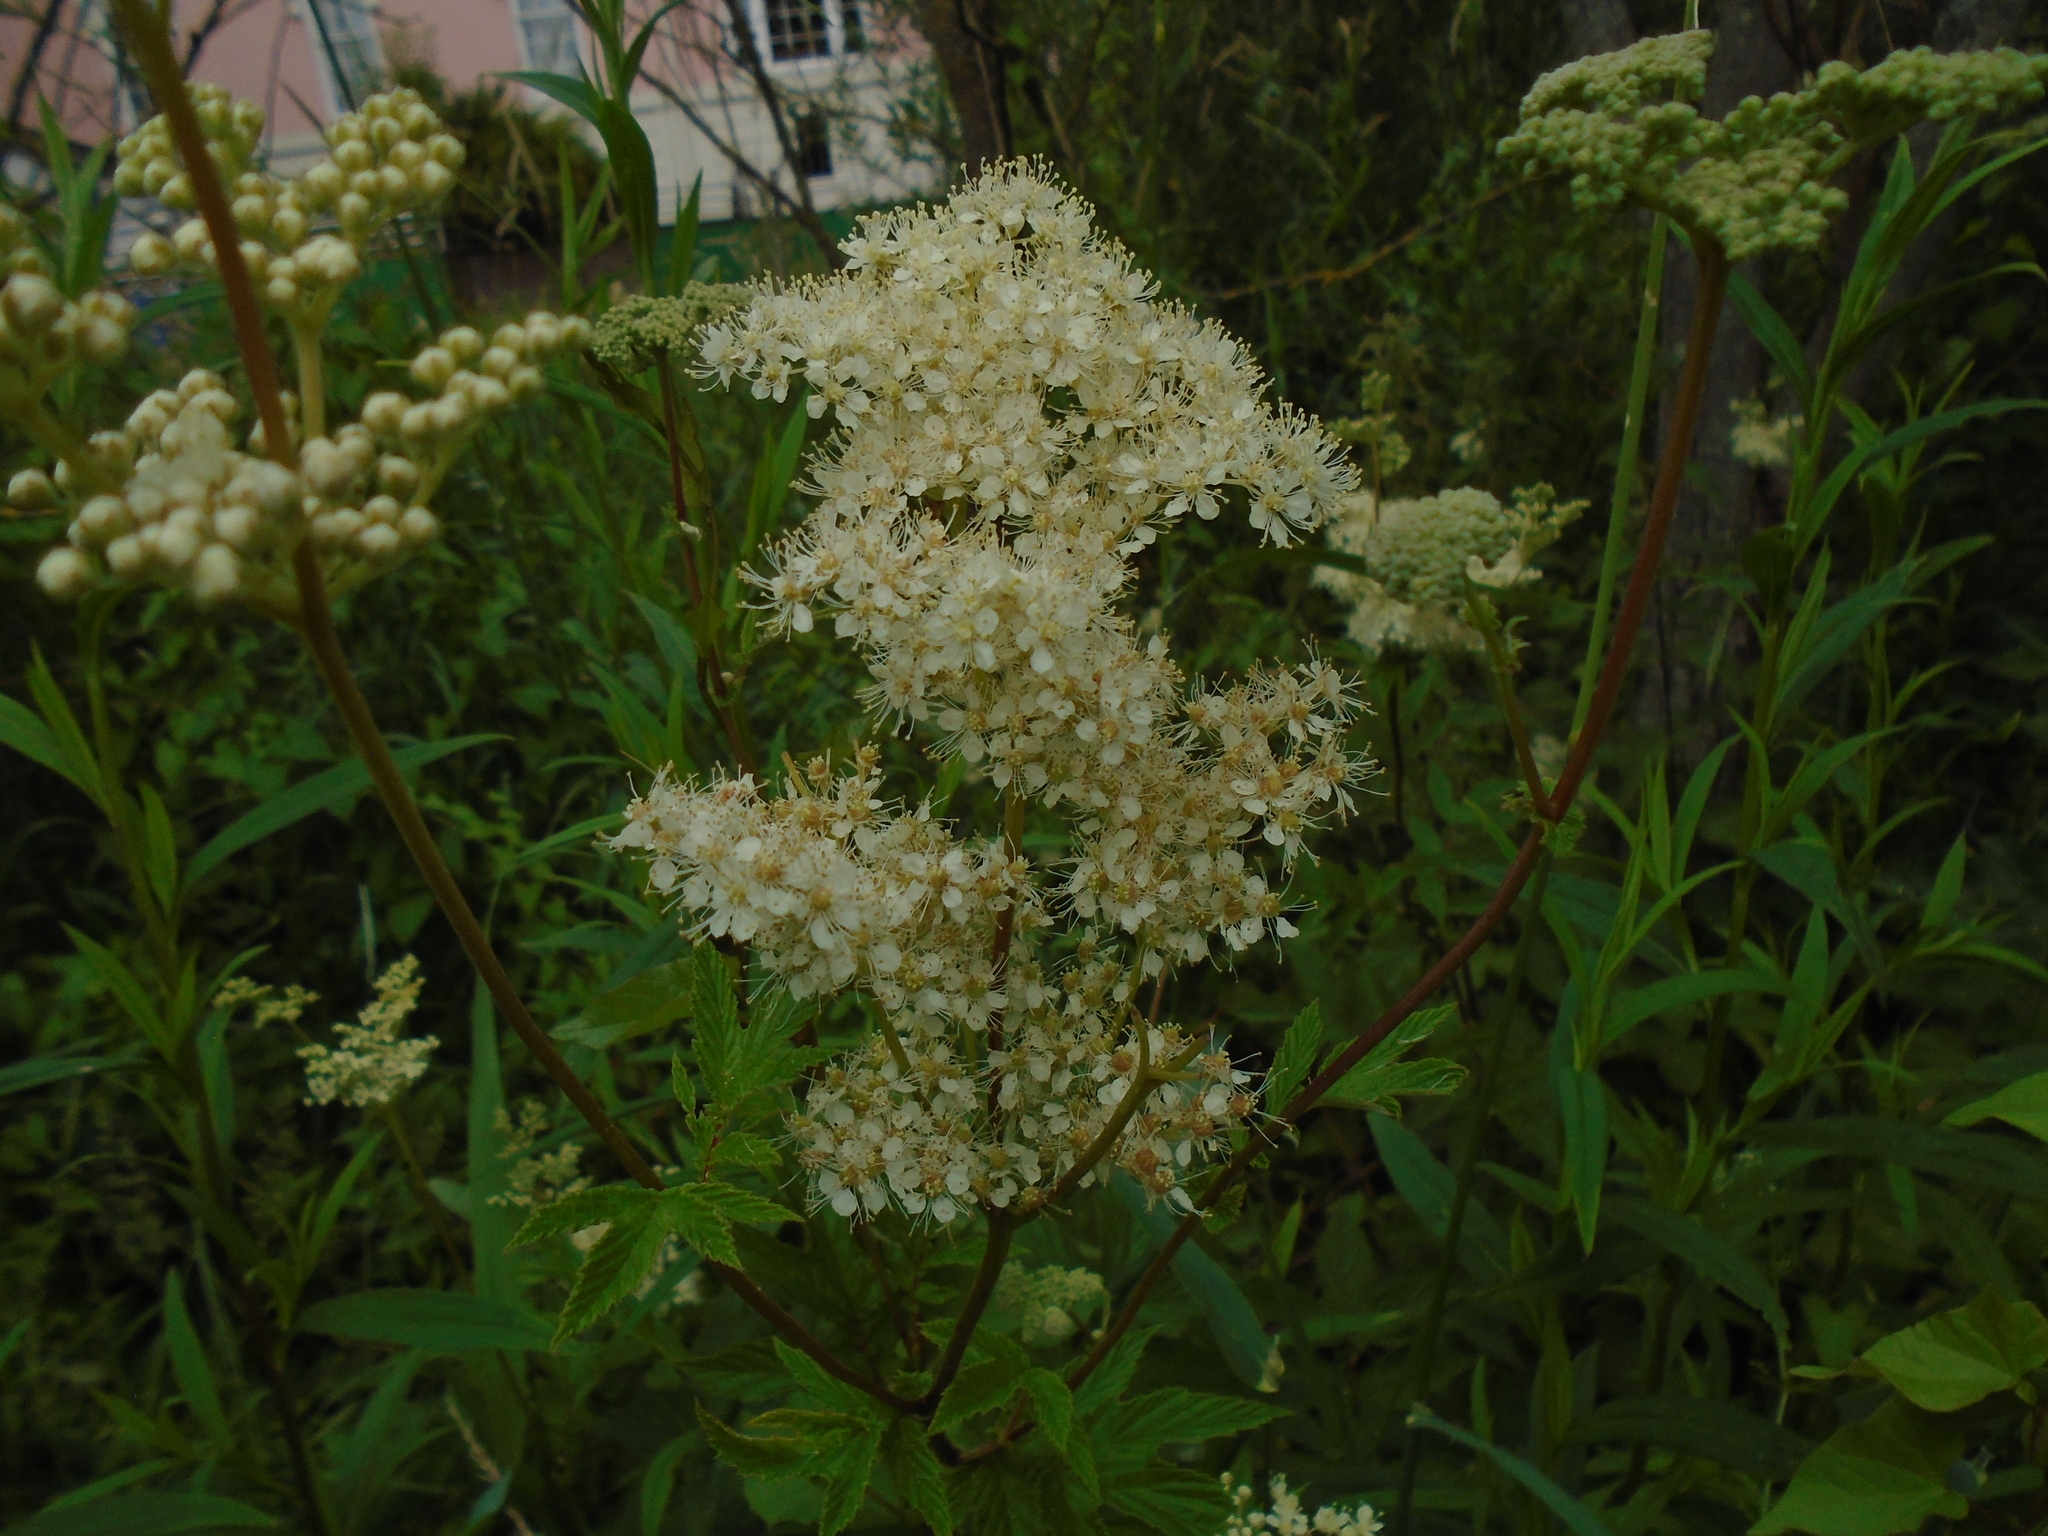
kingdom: Plantae
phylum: Tracheophyta
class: Magnoliopsida
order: Rosales
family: Rosaceae
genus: Filipendula
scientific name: Filipendula ulmaria
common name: Meadowsweet
